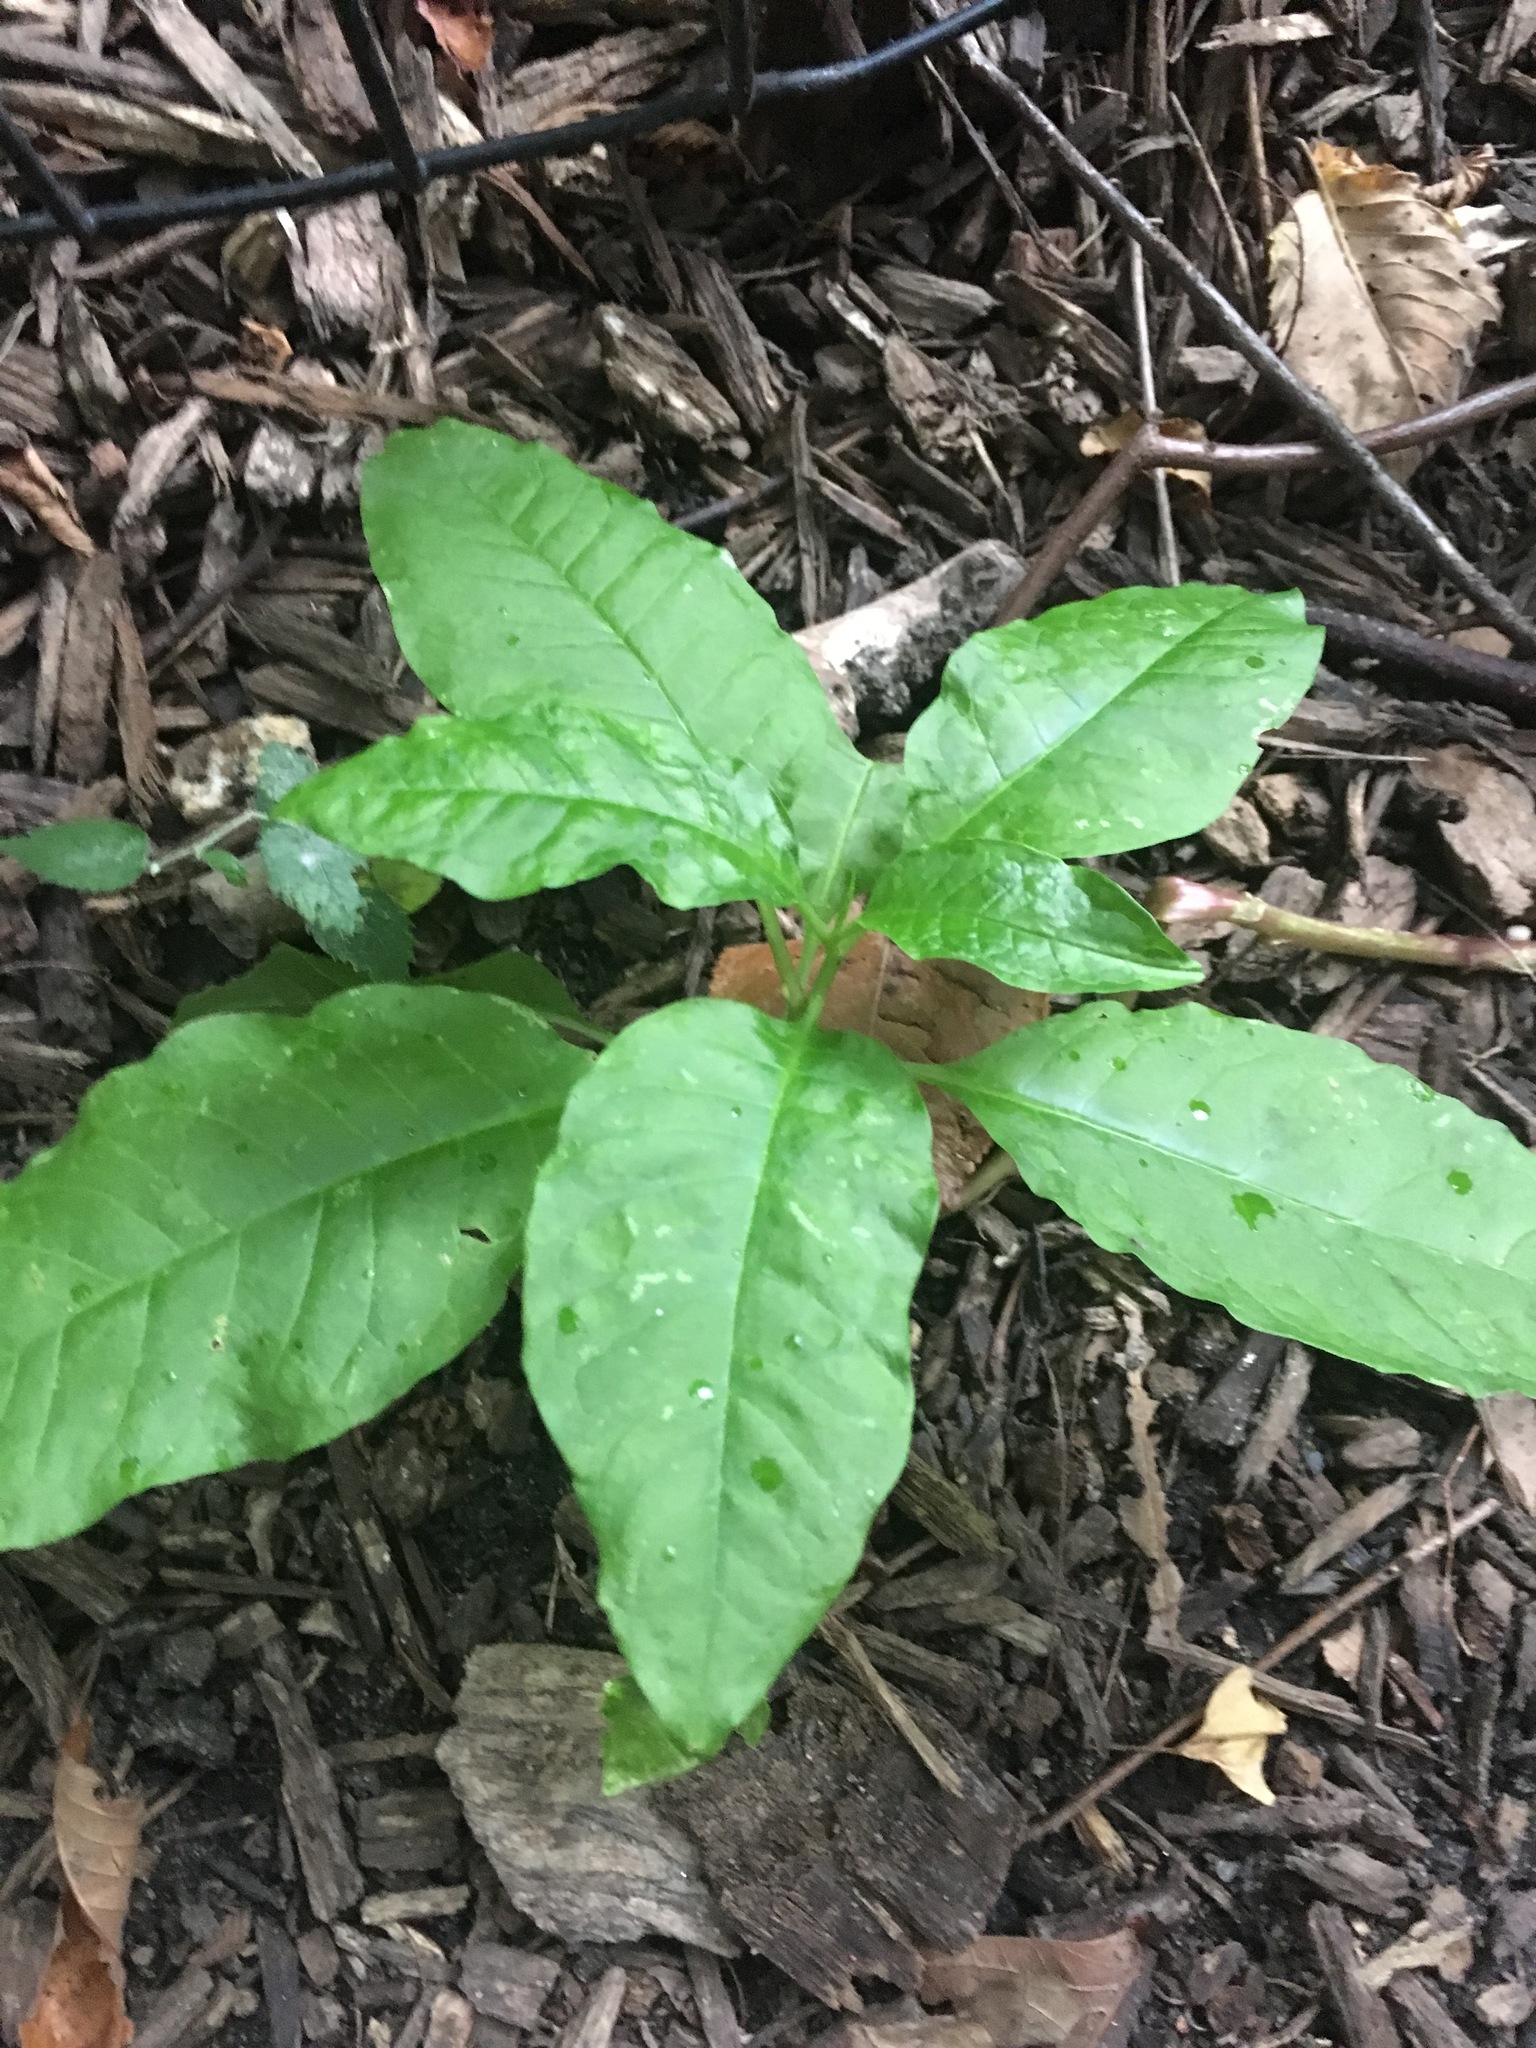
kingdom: Plantae
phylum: Tracheophyta
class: Magnoliopsida
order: Caryophyllales
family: Phytolaccaceae
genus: Phytolacca
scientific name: Phytolacca americana
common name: American pokeweed
